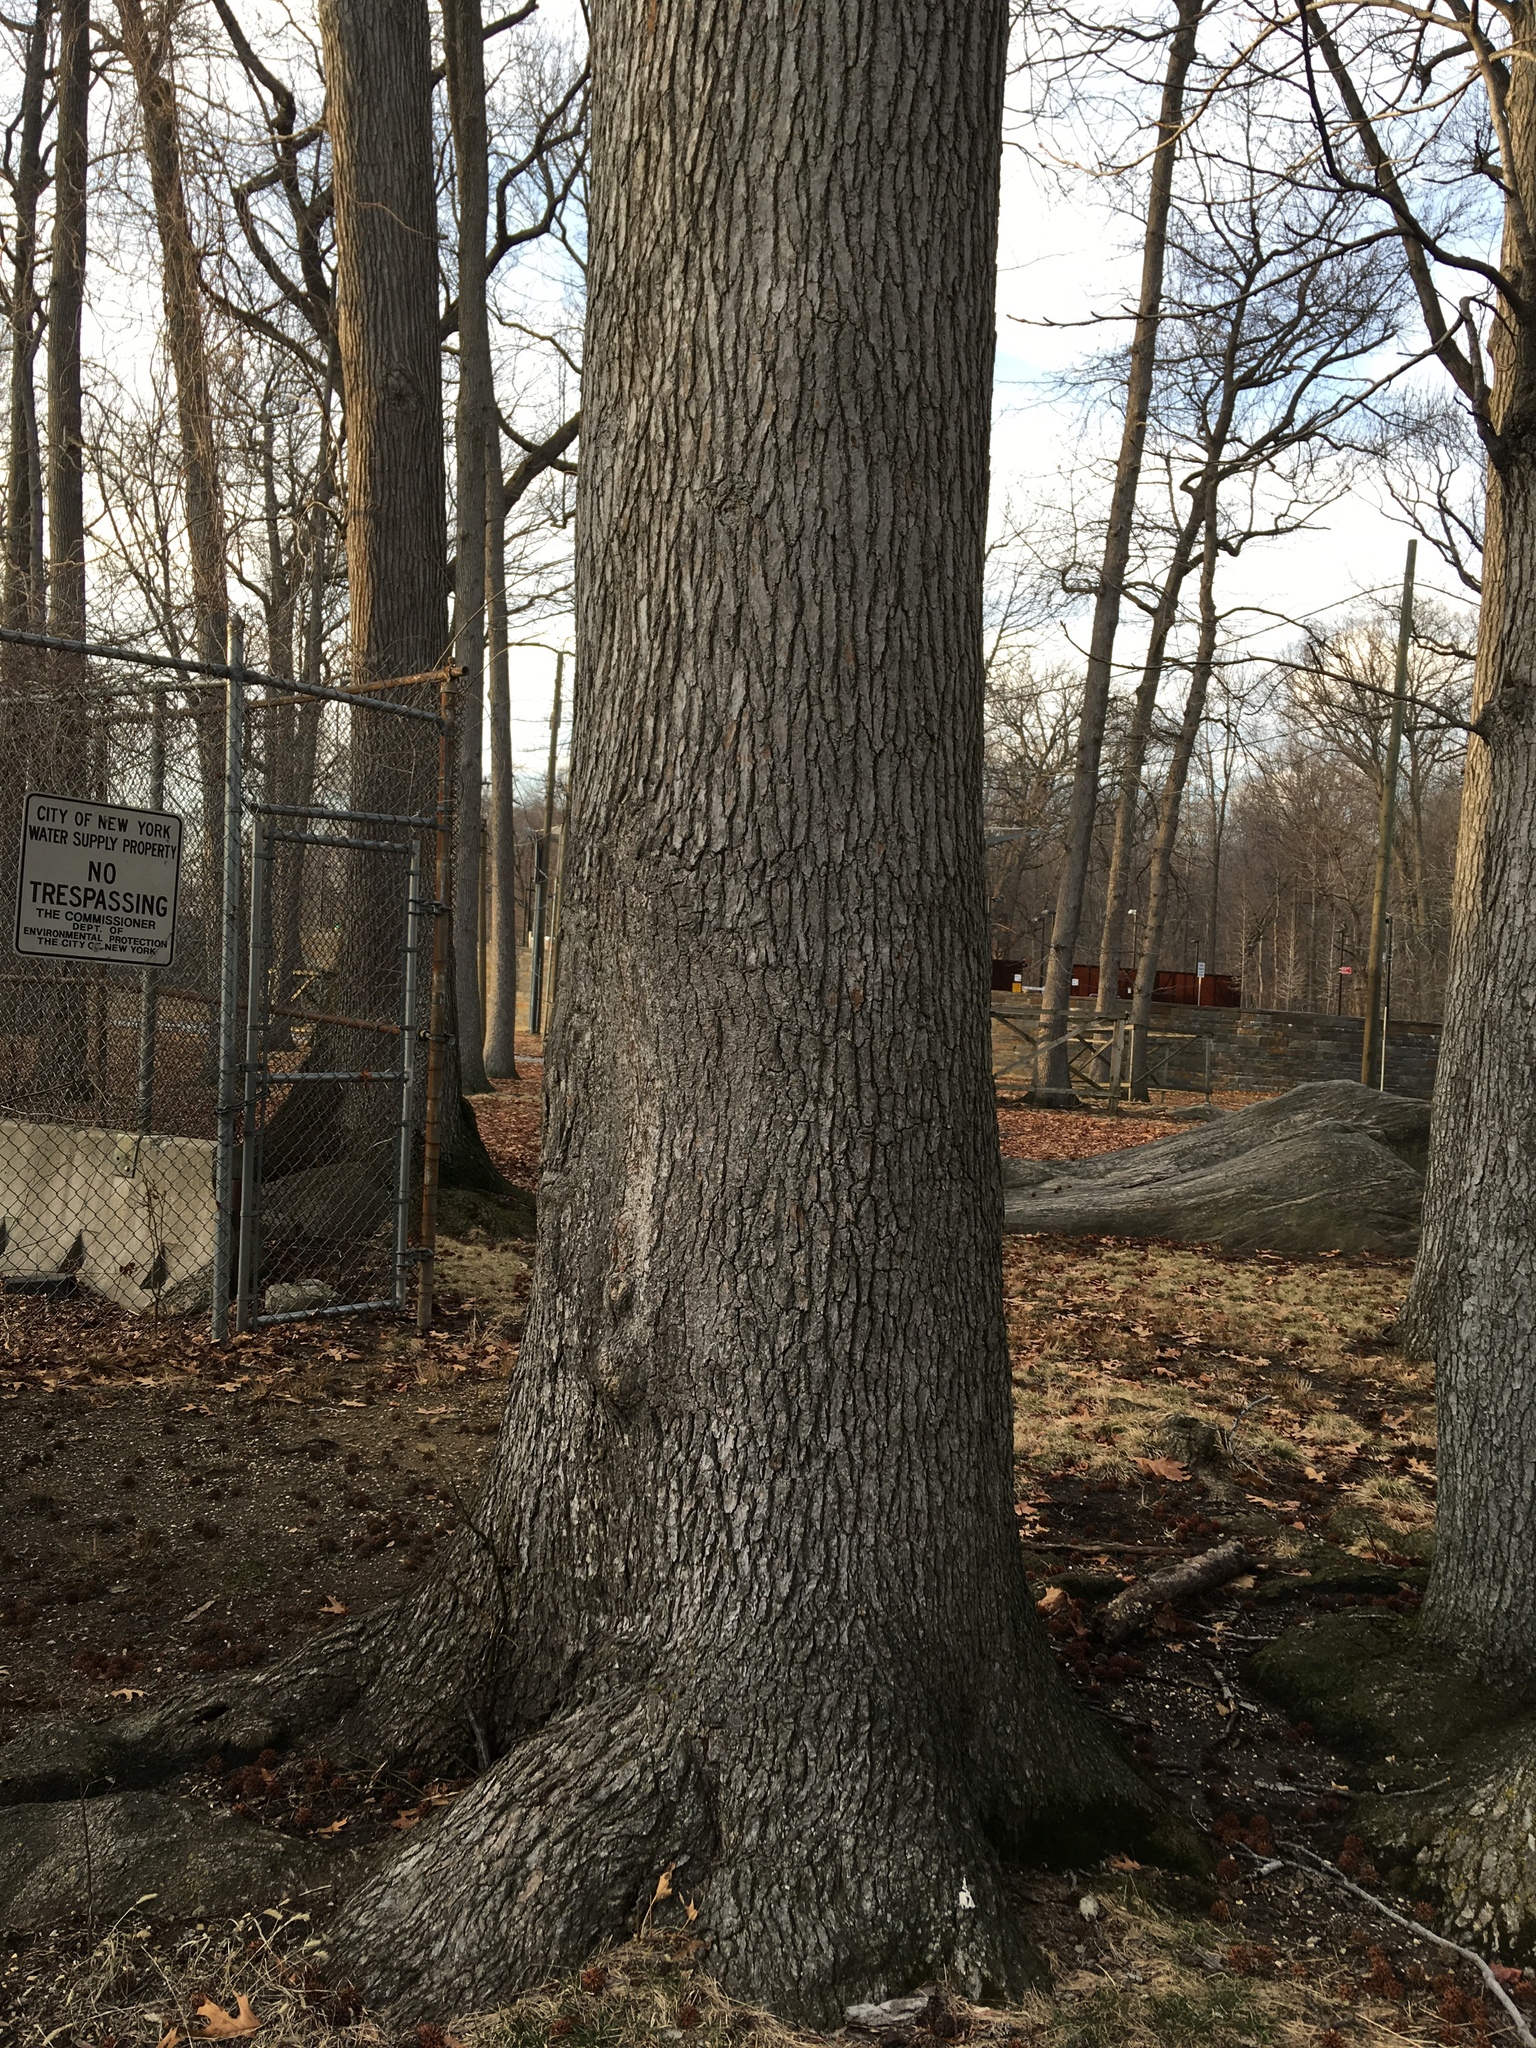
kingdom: Plantae
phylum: Tracheophyta
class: Magnoliopsida
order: Saxifragales
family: Altingiaceae
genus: Liquidambar
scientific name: Liquidambar styraciflua
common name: Sweet gum
